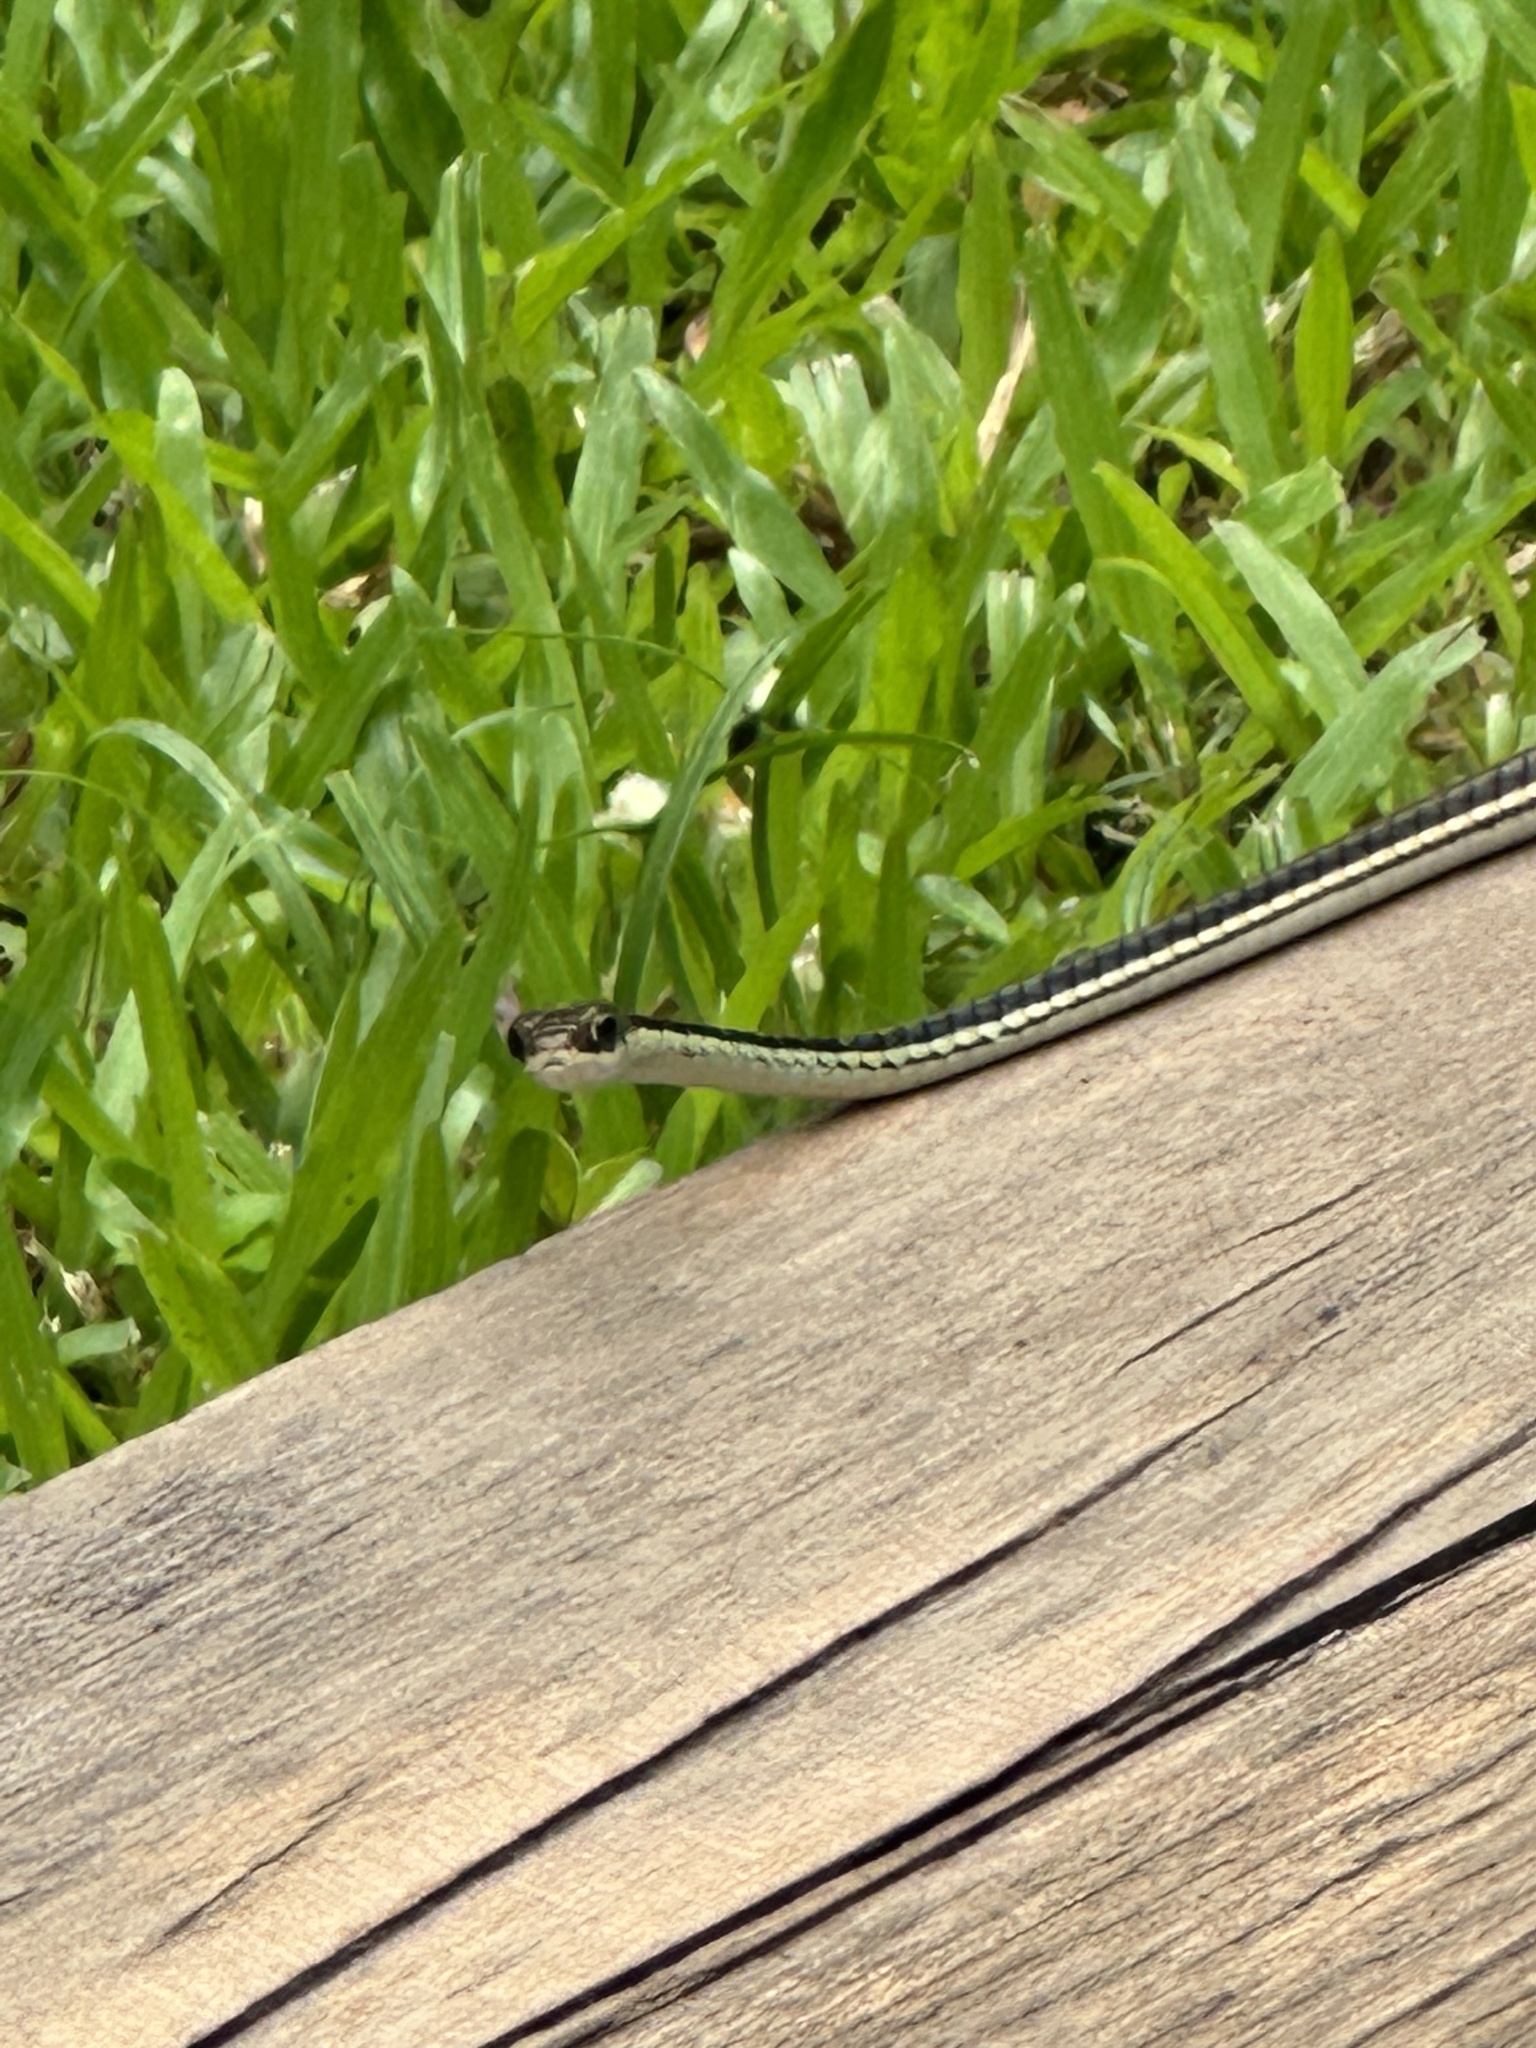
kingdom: Animalia
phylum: Chordata
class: Squamata
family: Colubridae
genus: Dendrelaphis
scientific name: Dendrelaphis pictus
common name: Indonesian bronze-back
